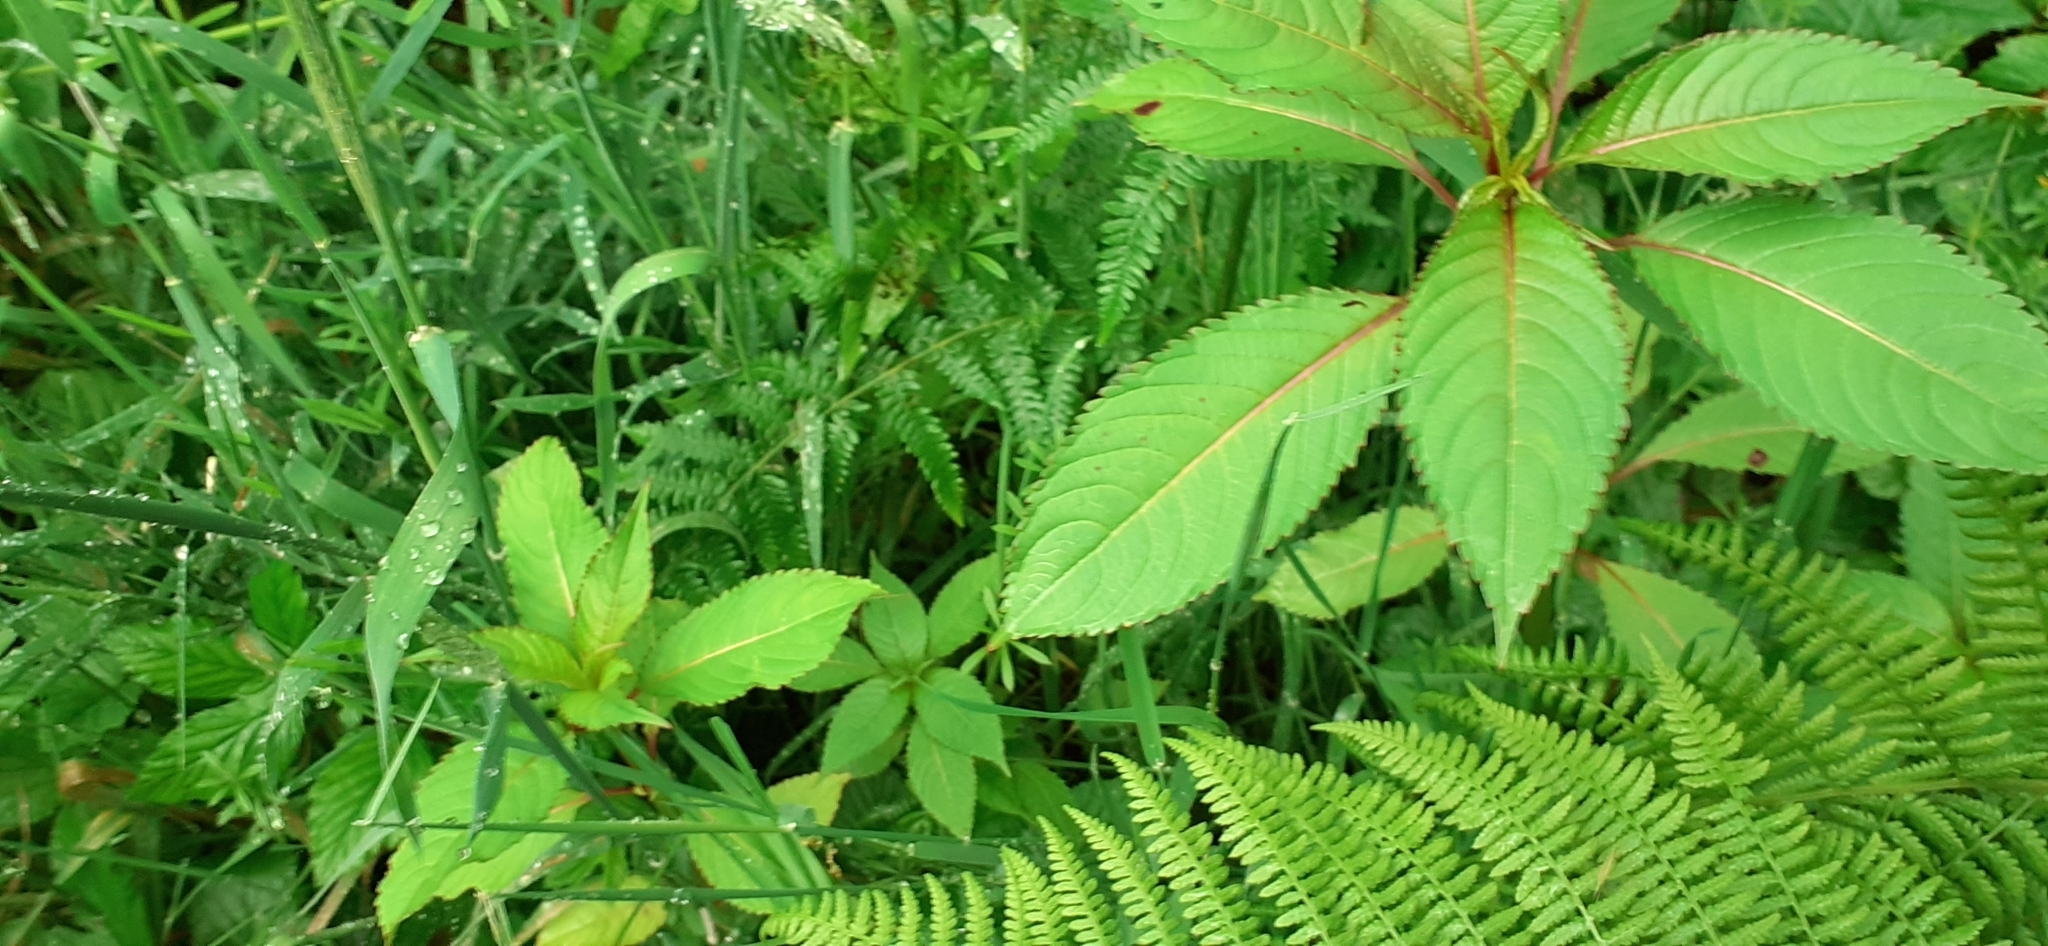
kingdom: Plantae
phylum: Tracheophyta
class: Magnoliopsida
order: Ericales
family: Balsaminaceae
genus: Impatiens
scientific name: Impatiens glandulifera
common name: Himalayan balsam
